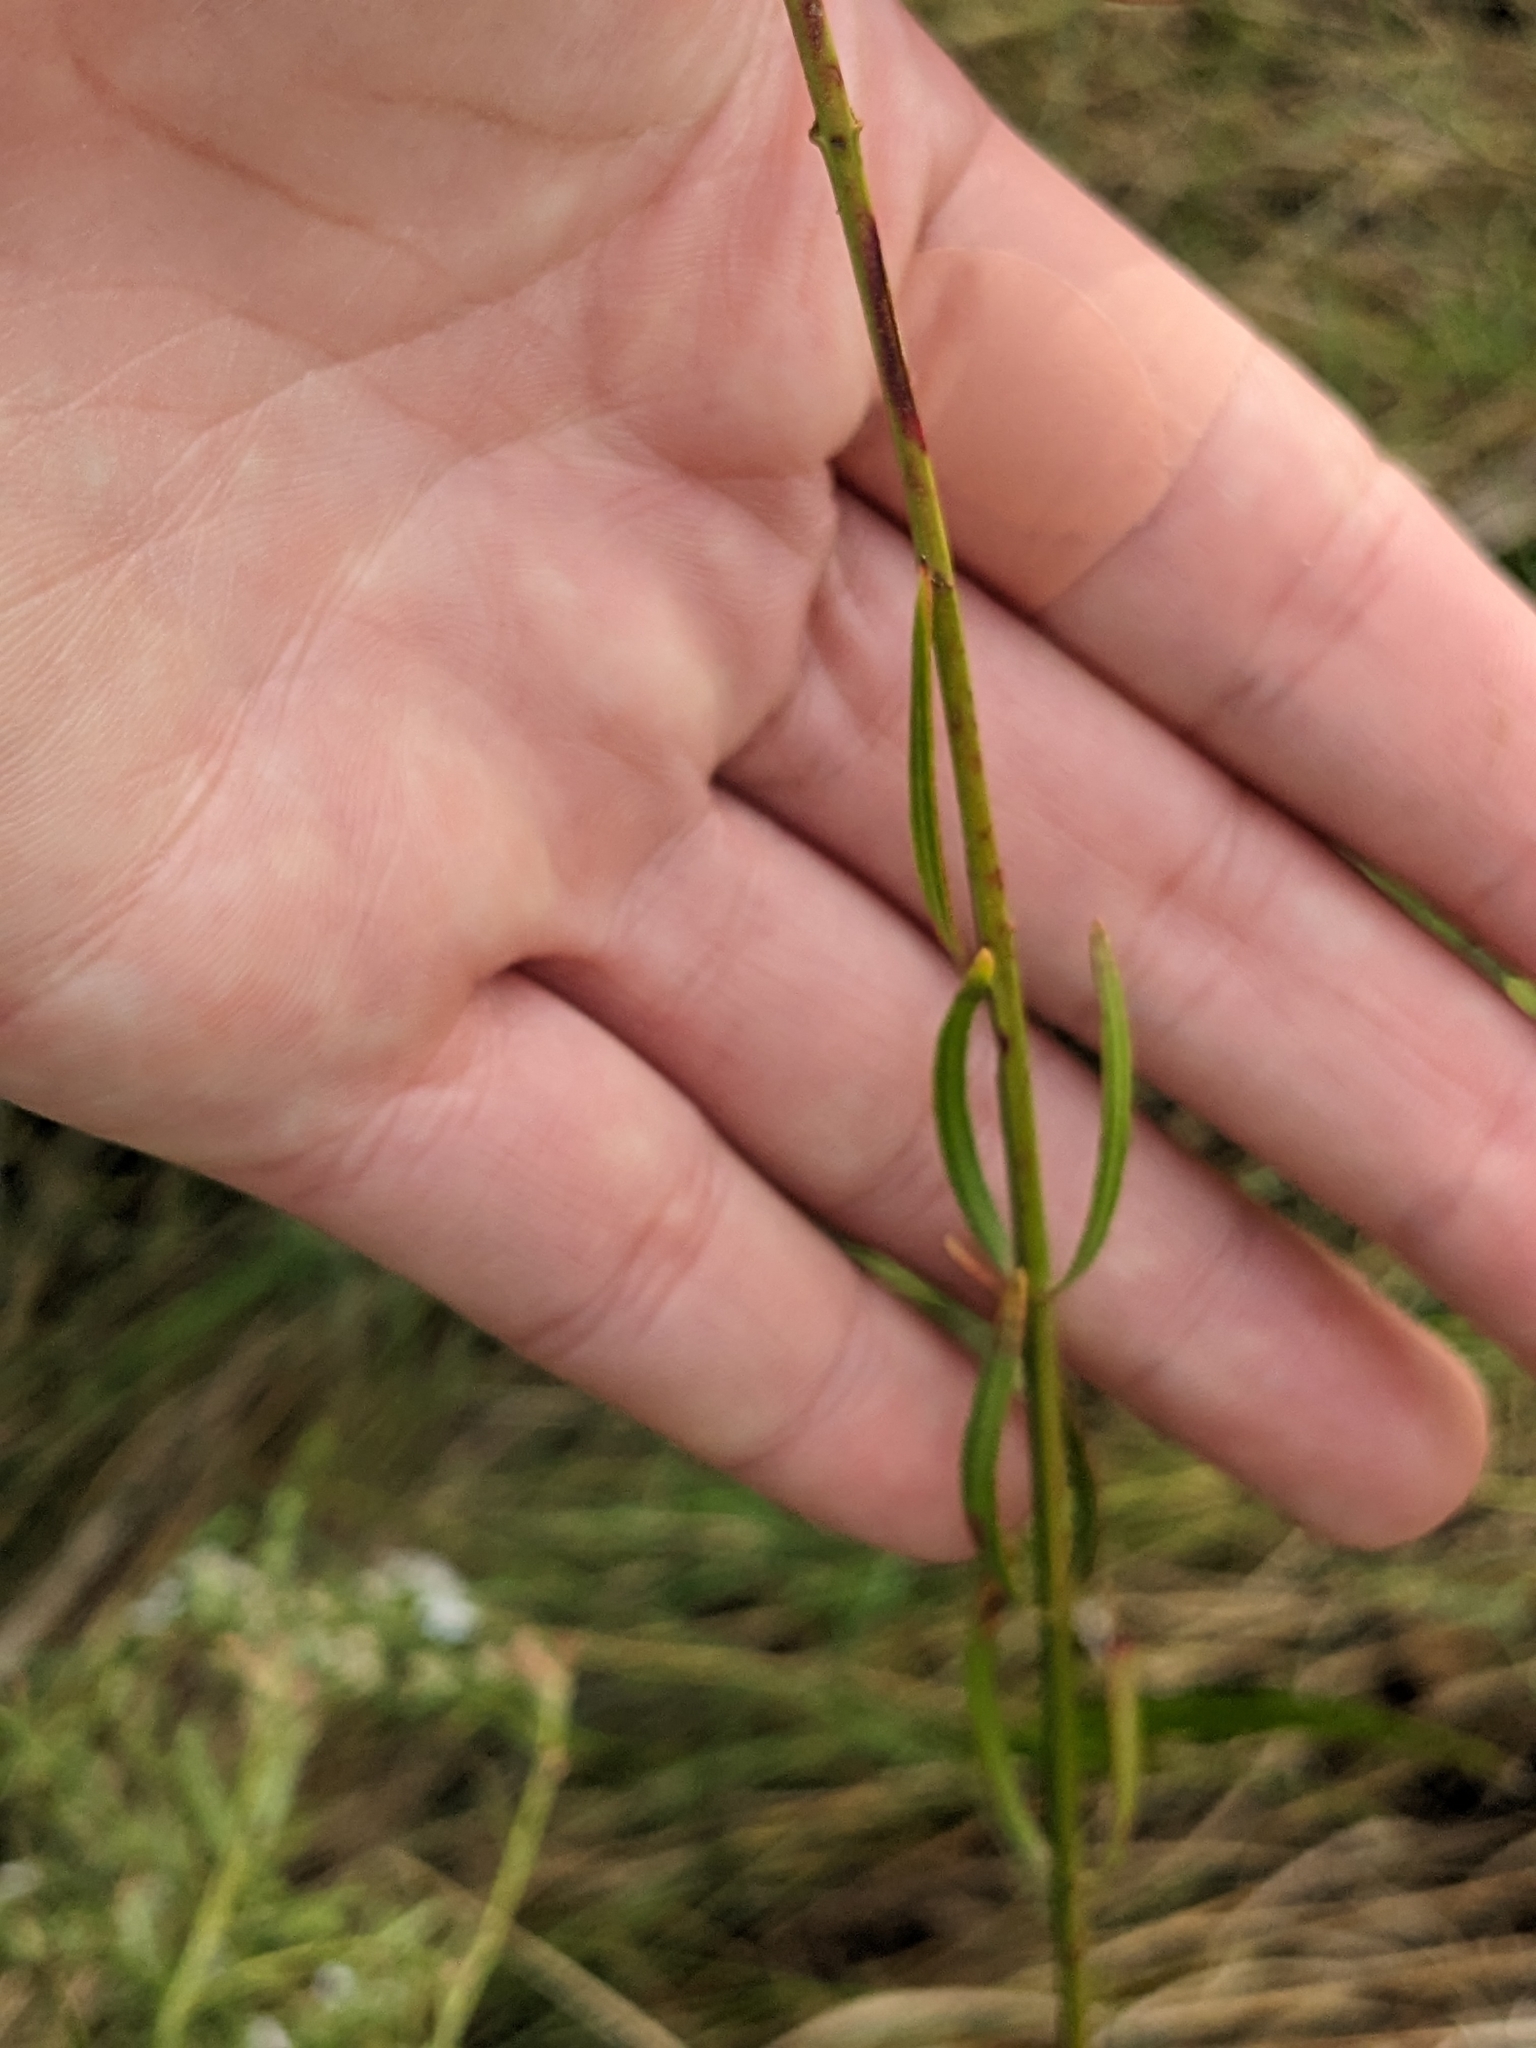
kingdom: Plantae
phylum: Tracheophyta
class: Magnoliopsida
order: Myrtales
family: Lythraceae
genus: Lythrum
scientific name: Lythrum lineare
